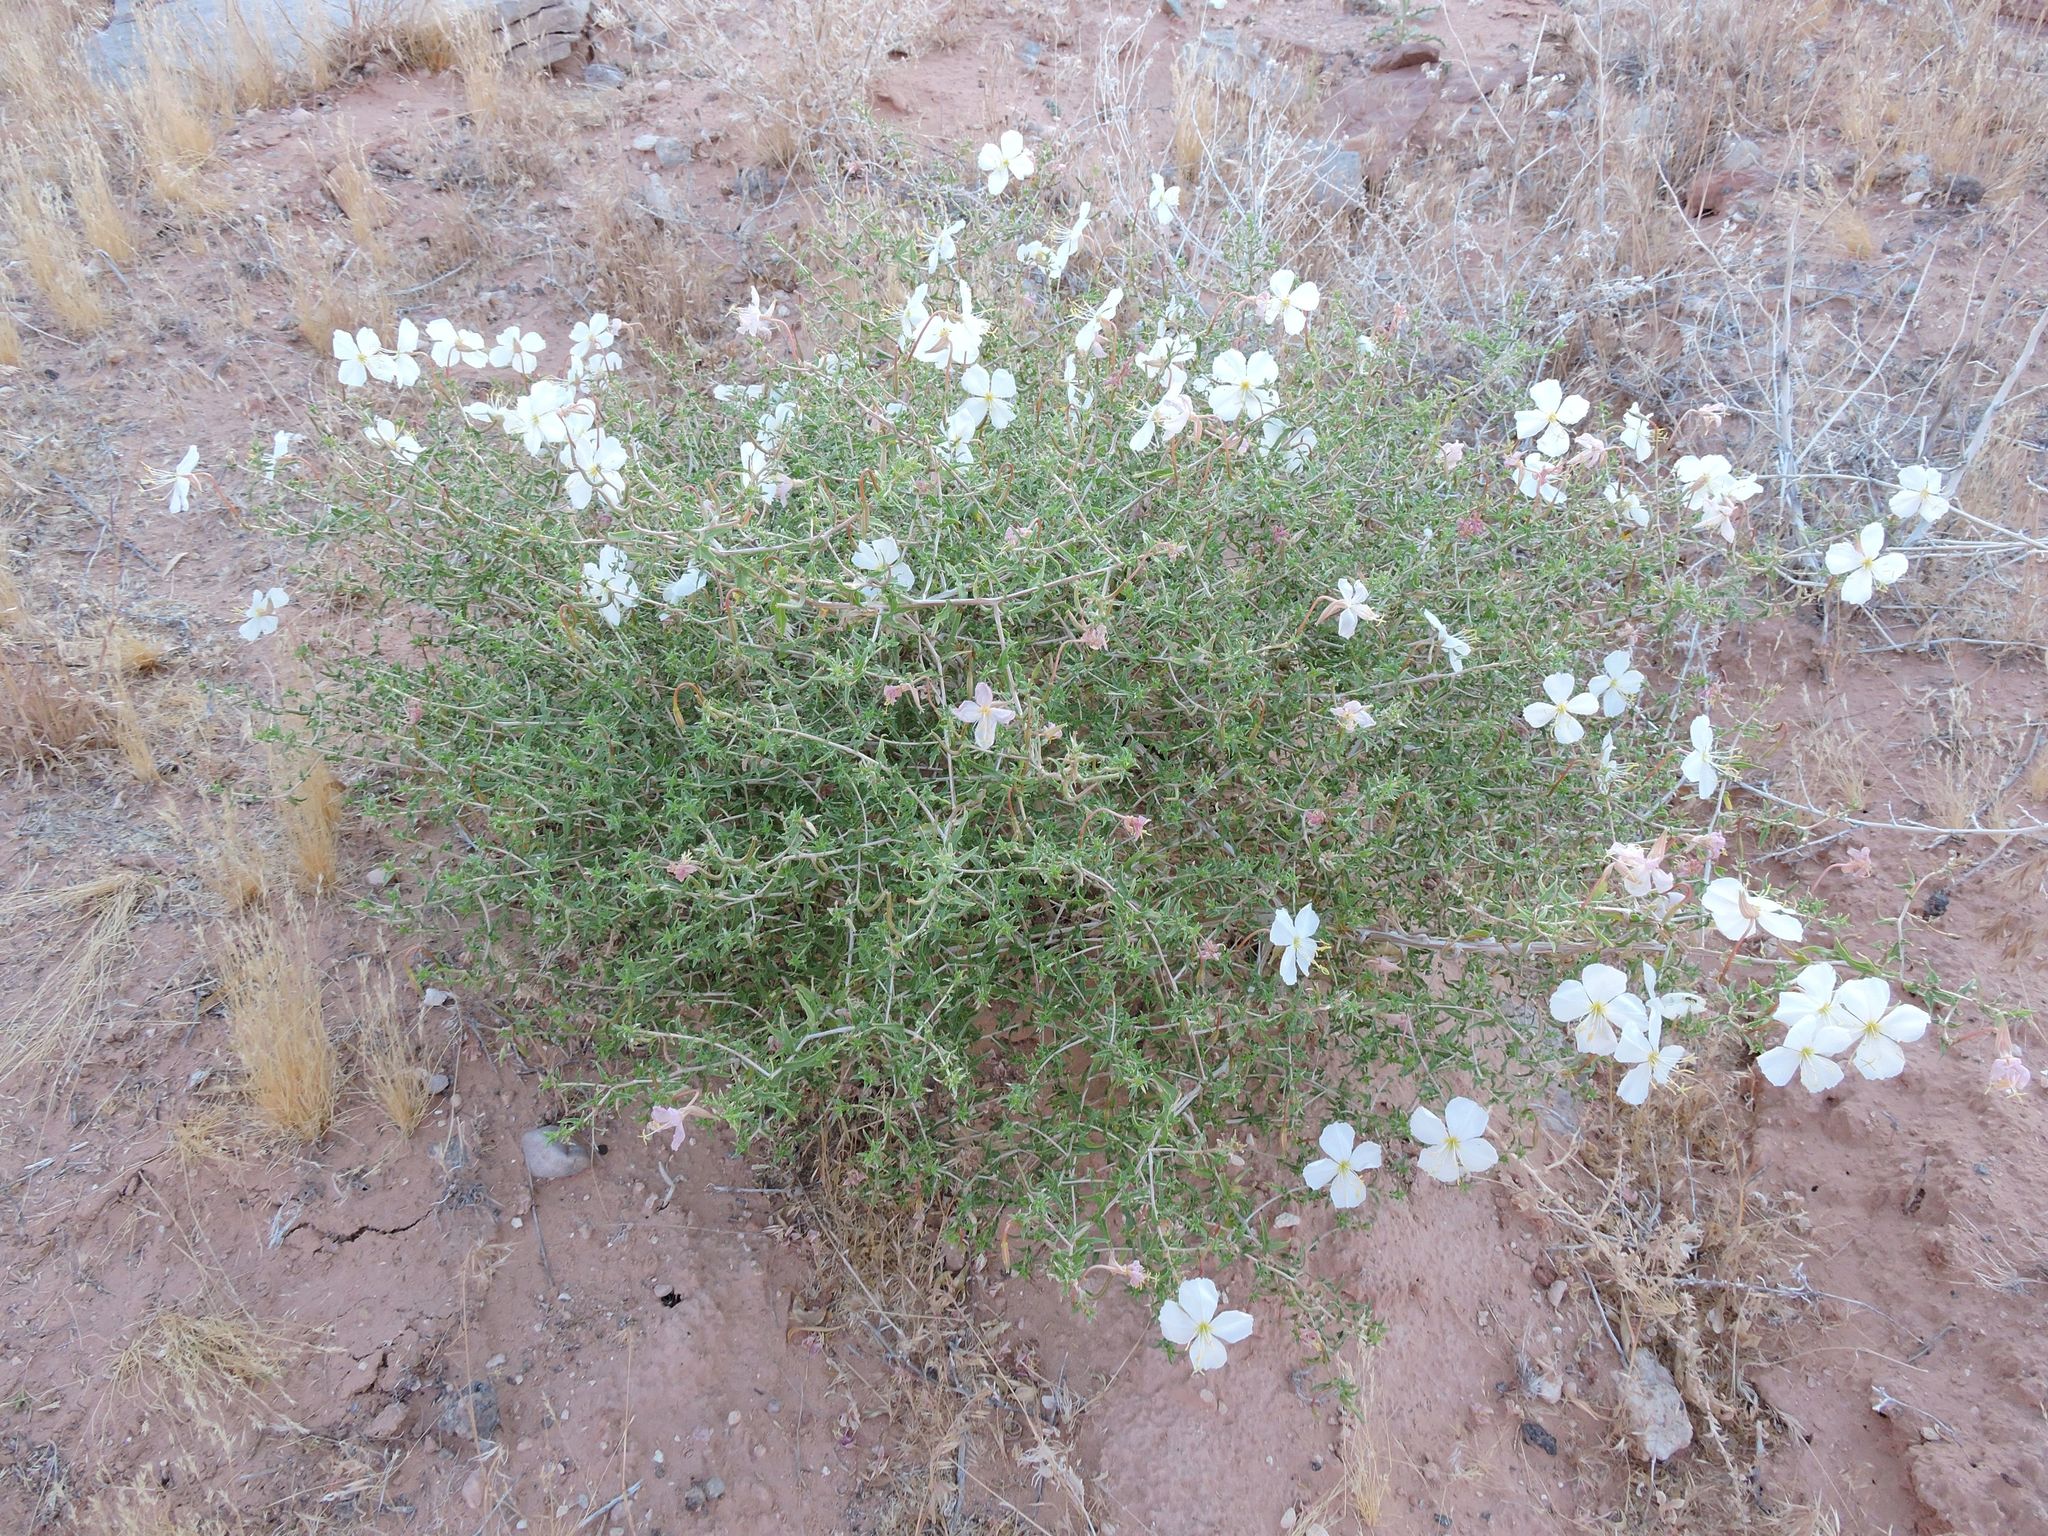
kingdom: Plantae
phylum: Tracheophyta
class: Magnoliopsida
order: Myrtales
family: Onagraceae
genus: Oenothera
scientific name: Oenothera pallida
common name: Pale evening-primrose
